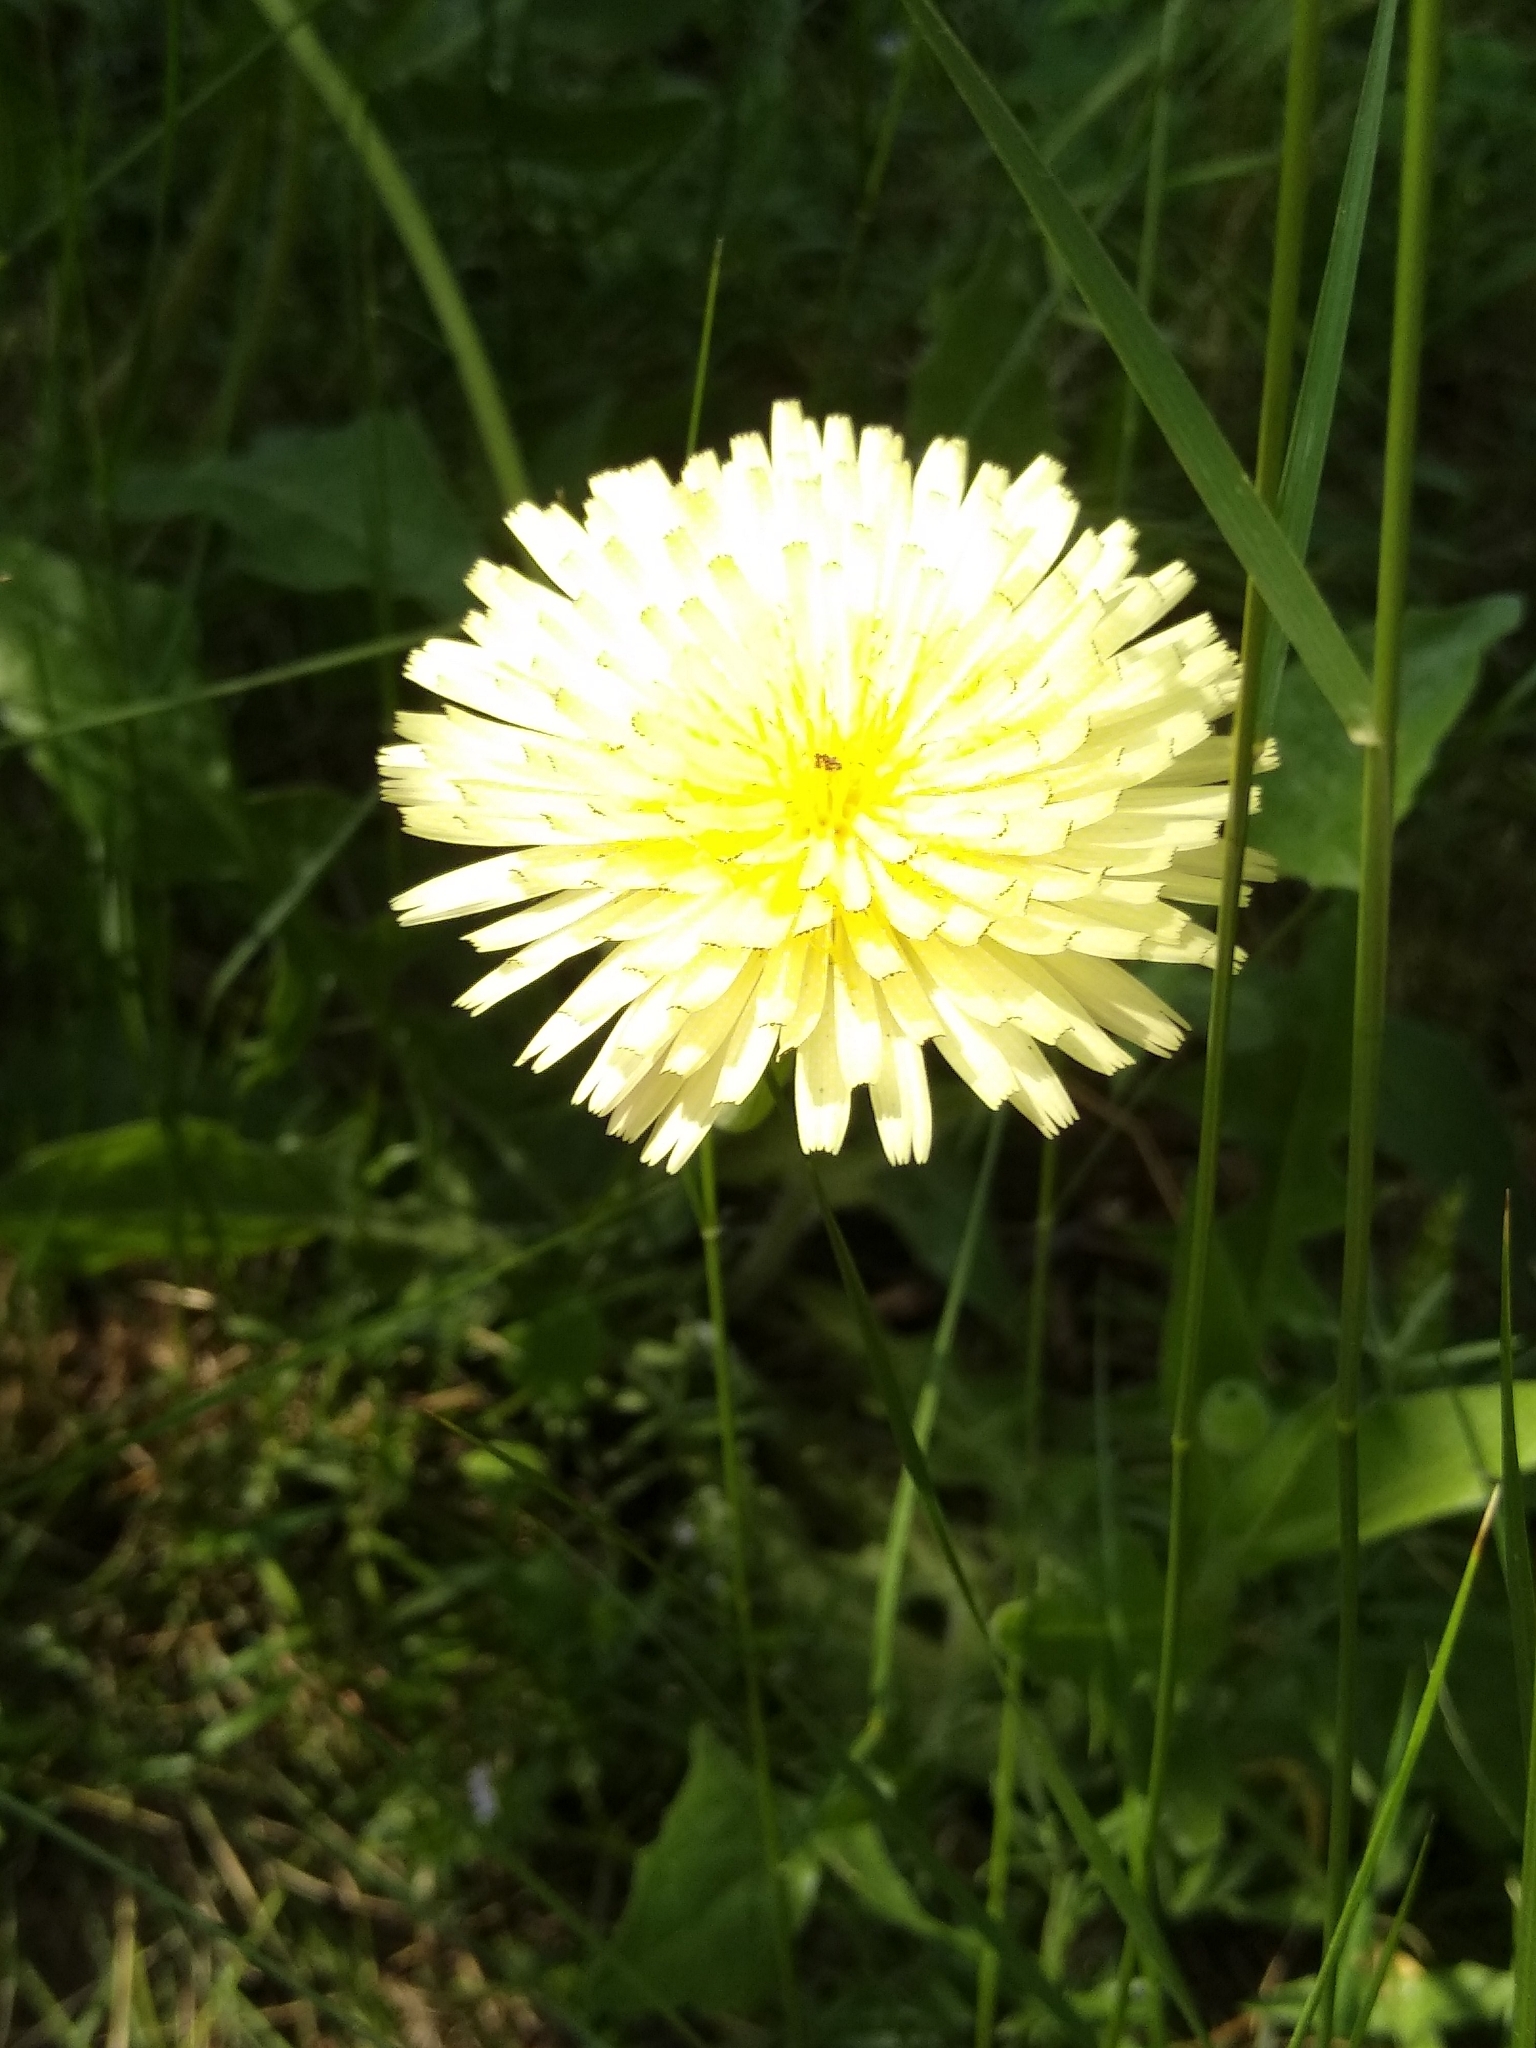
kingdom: Plantae
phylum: Tracheophyta
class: Magnoliopsida
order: Asterales
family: Asteraceae
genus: Urospermum
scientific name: Urospermum dalechampii
